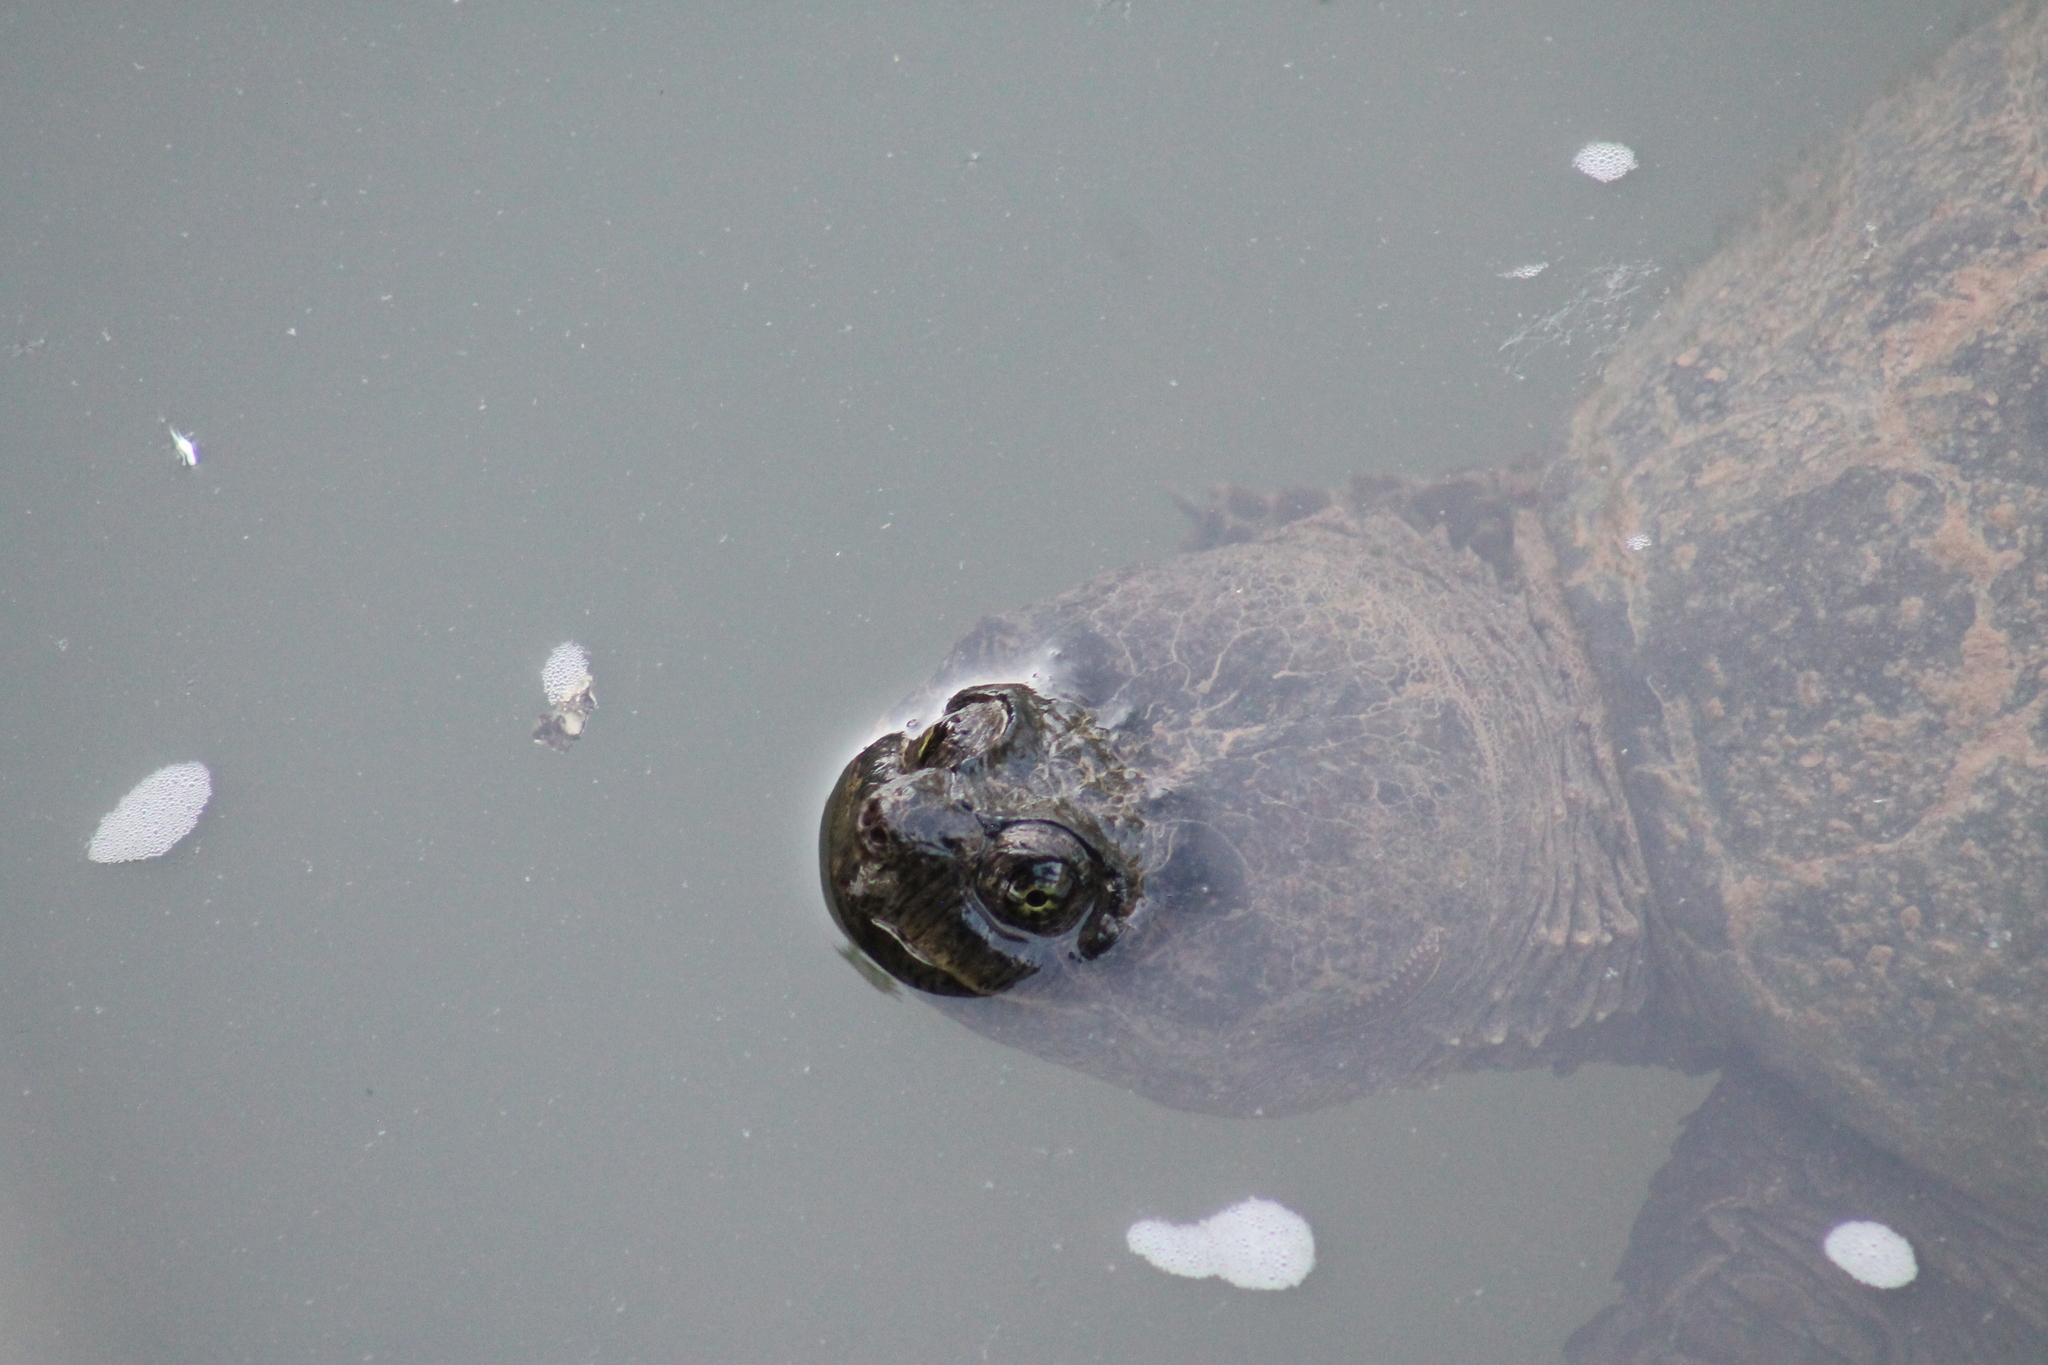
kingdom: Animalia
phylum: Chordata
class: Testudines
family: Chelydridae
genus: Chelydra
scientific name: Chelydra serpentina
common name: Common snapping turtle
